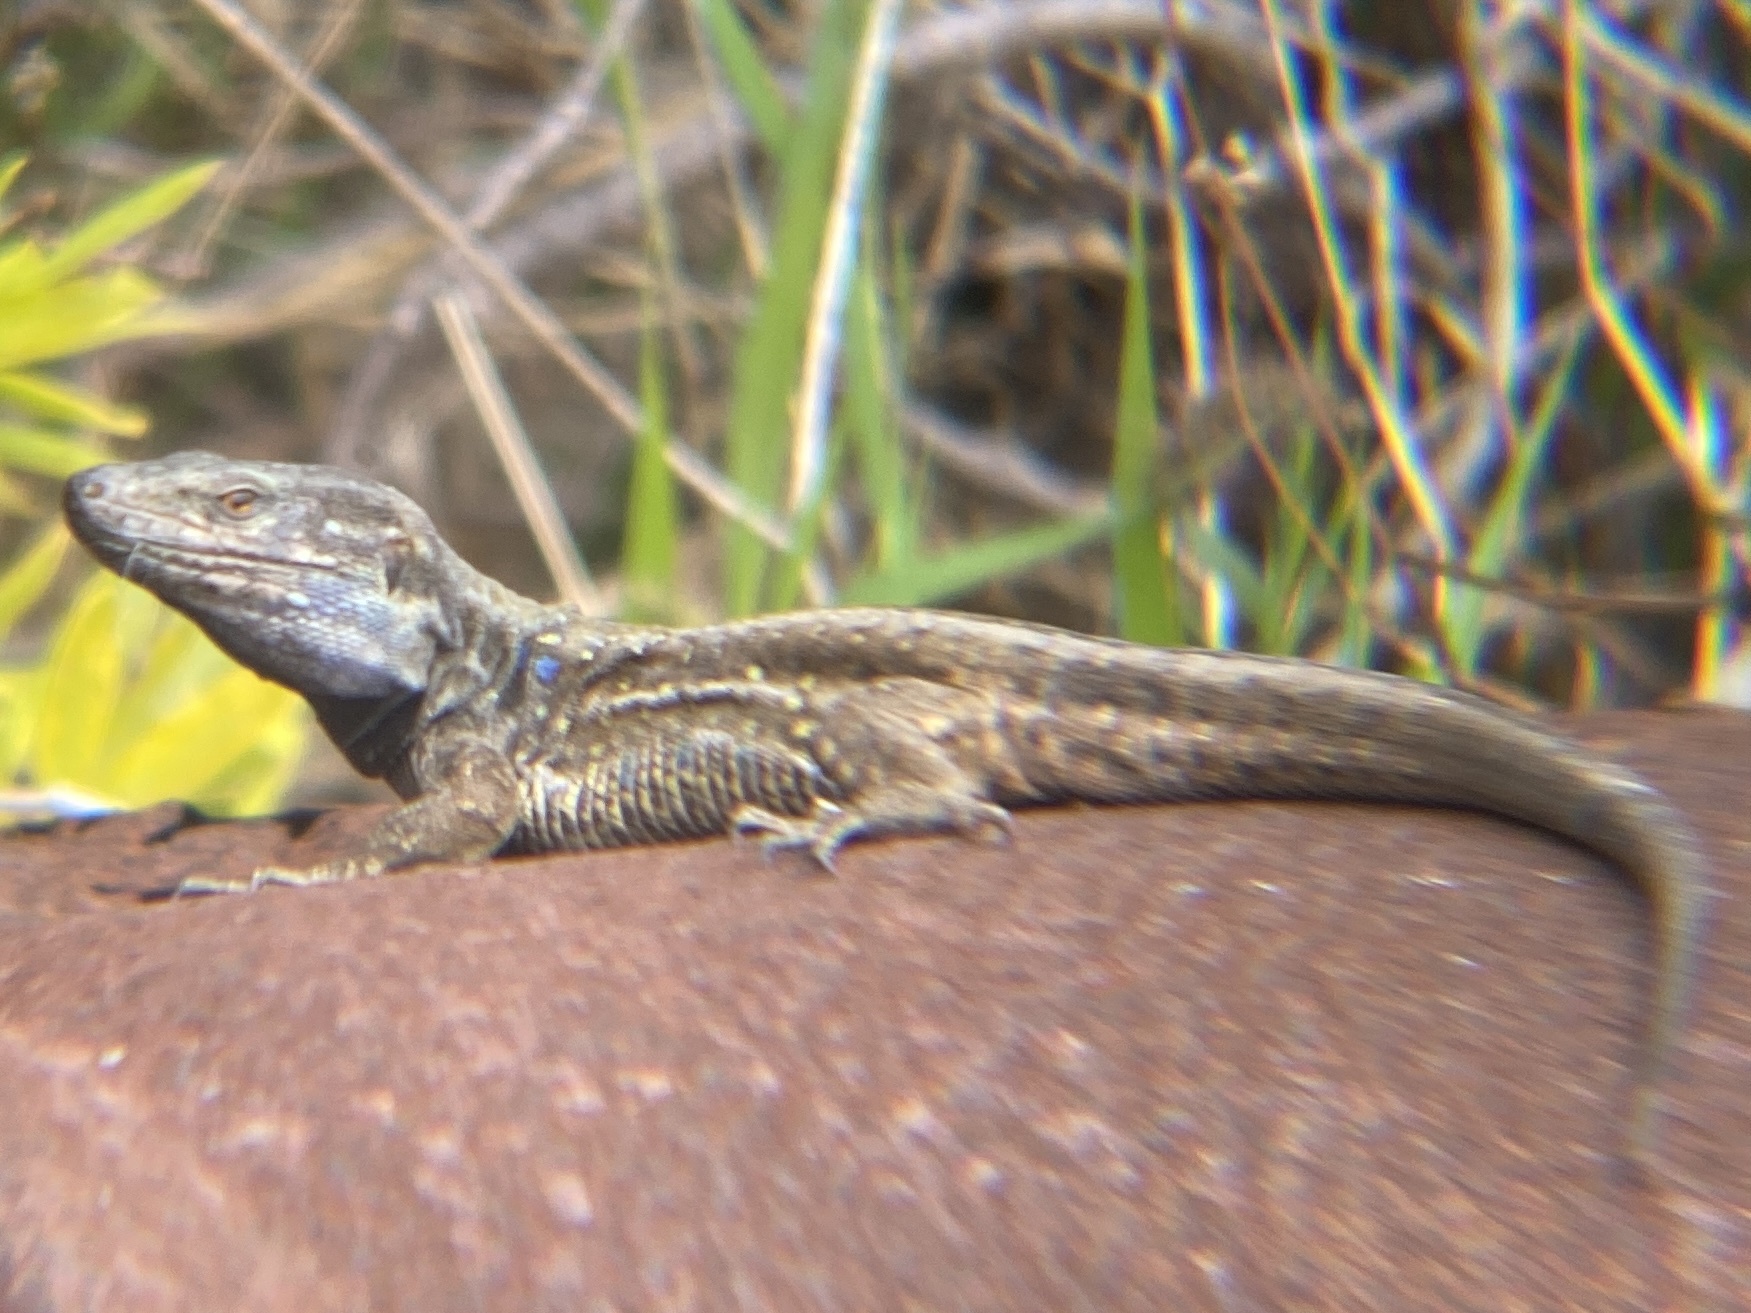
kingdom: Animalia
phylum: Chordata
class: Squamata
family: Lacertidae
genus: Gallotia
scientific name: Gallotia galloti
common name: Gallot's lizard
